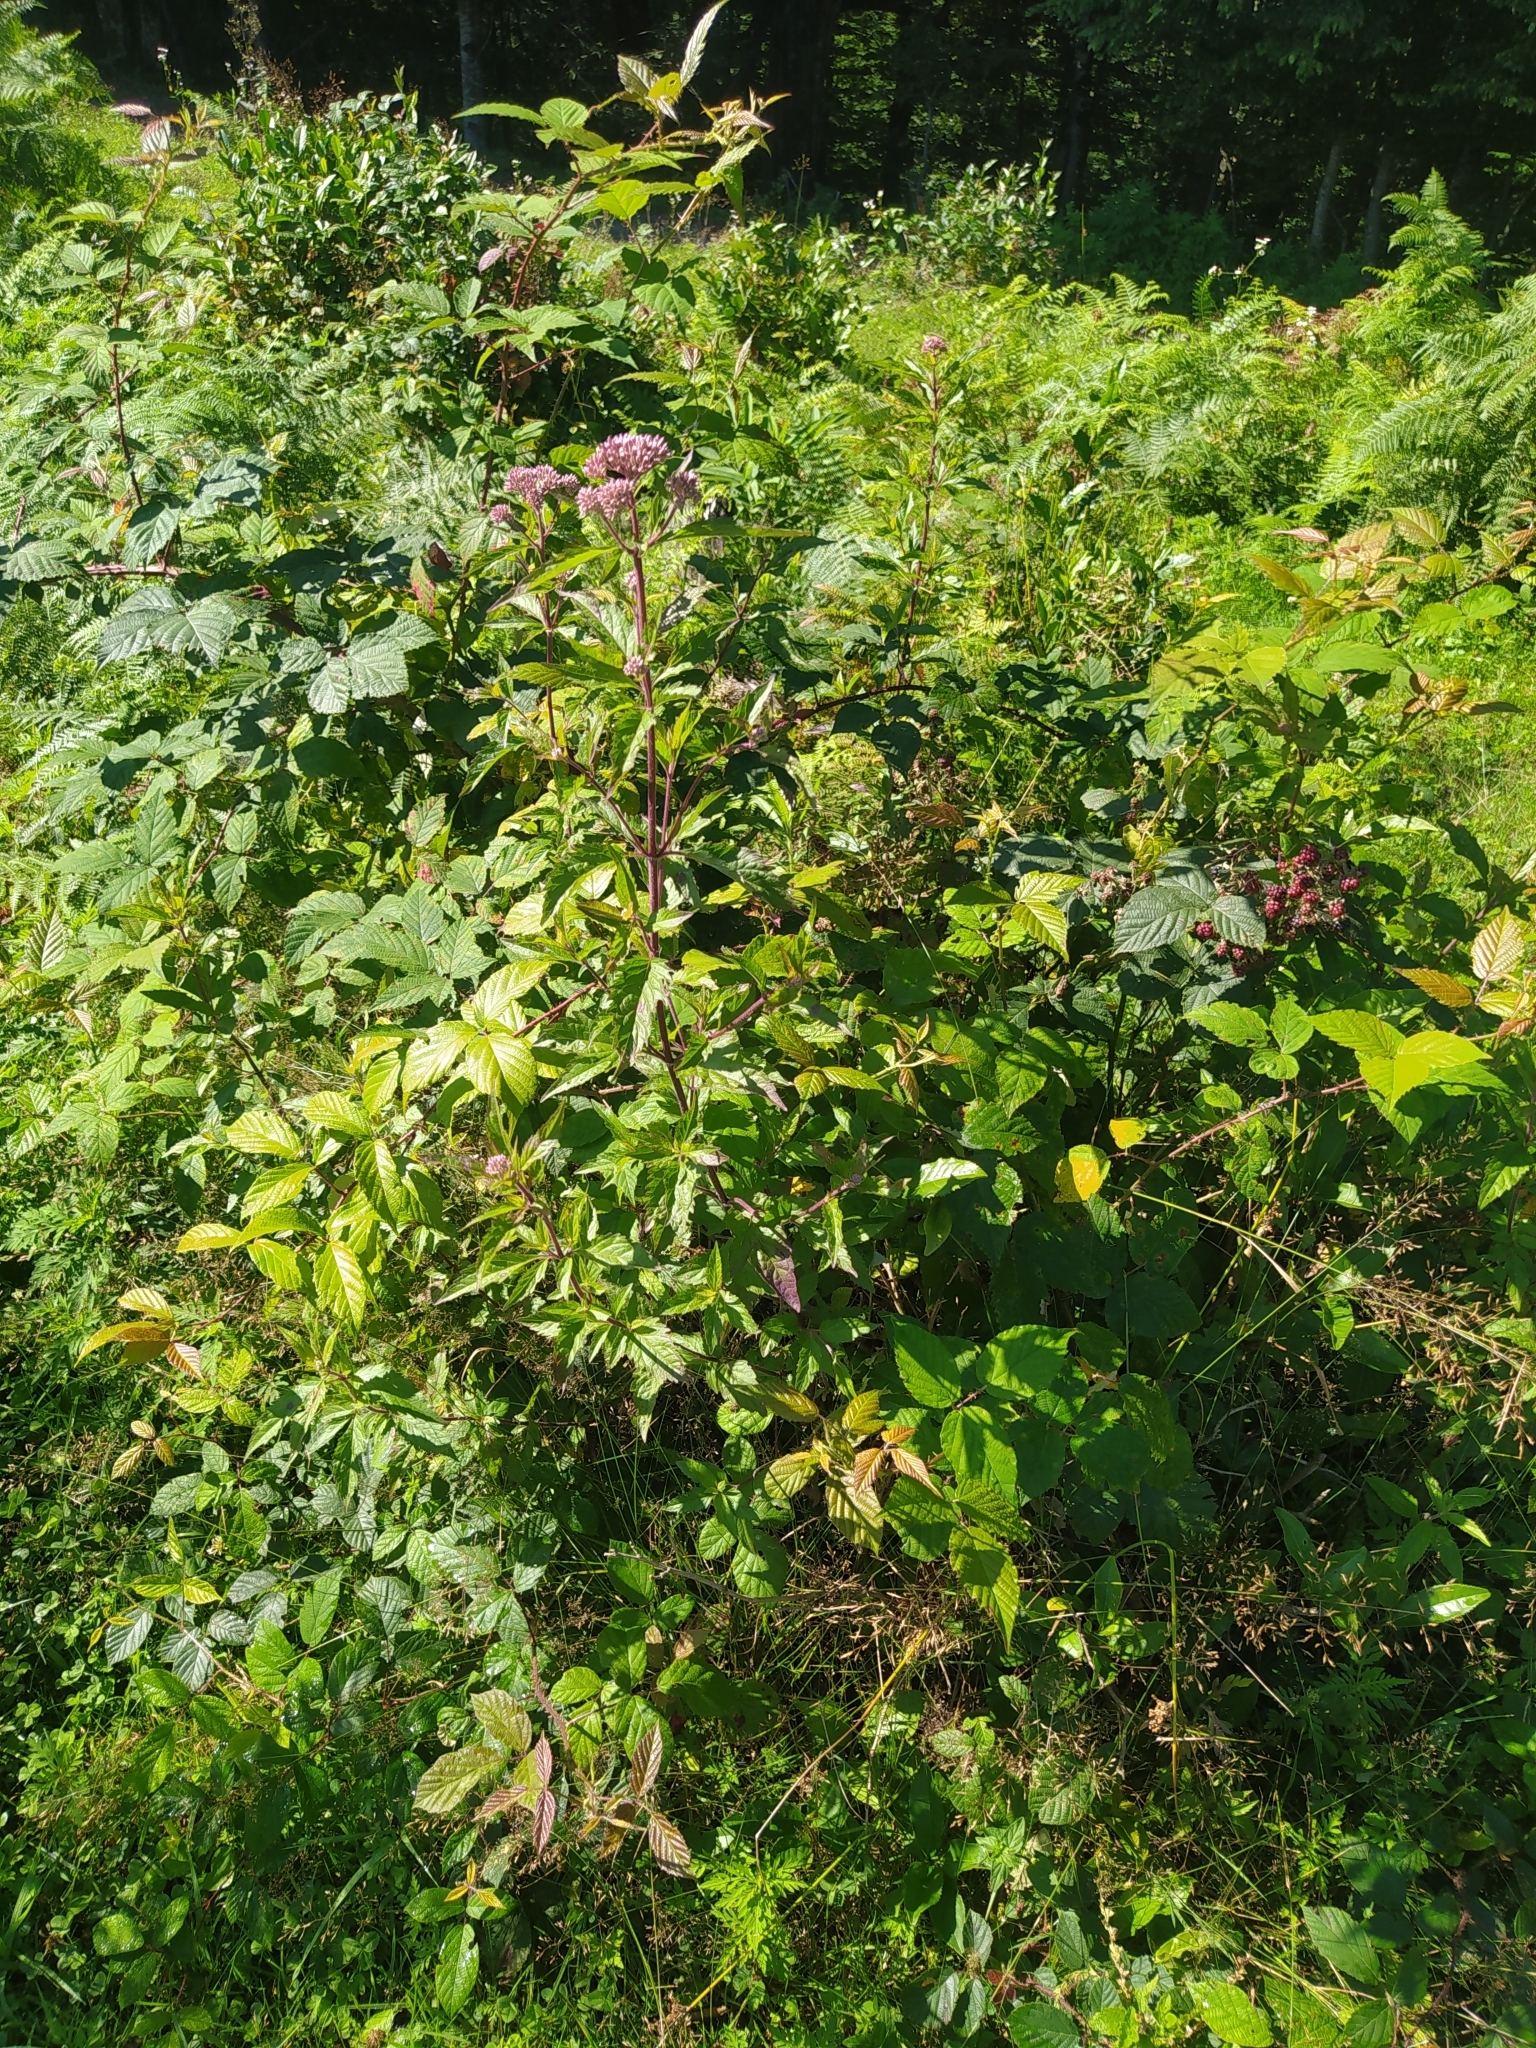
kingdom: Plantae
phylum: Tracheophyta
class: Magnoliopsida
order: Asterales
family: Asteraceae
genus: Eupatorium
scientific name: Eupatorium cannabinum
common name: Hemp-agrimony
